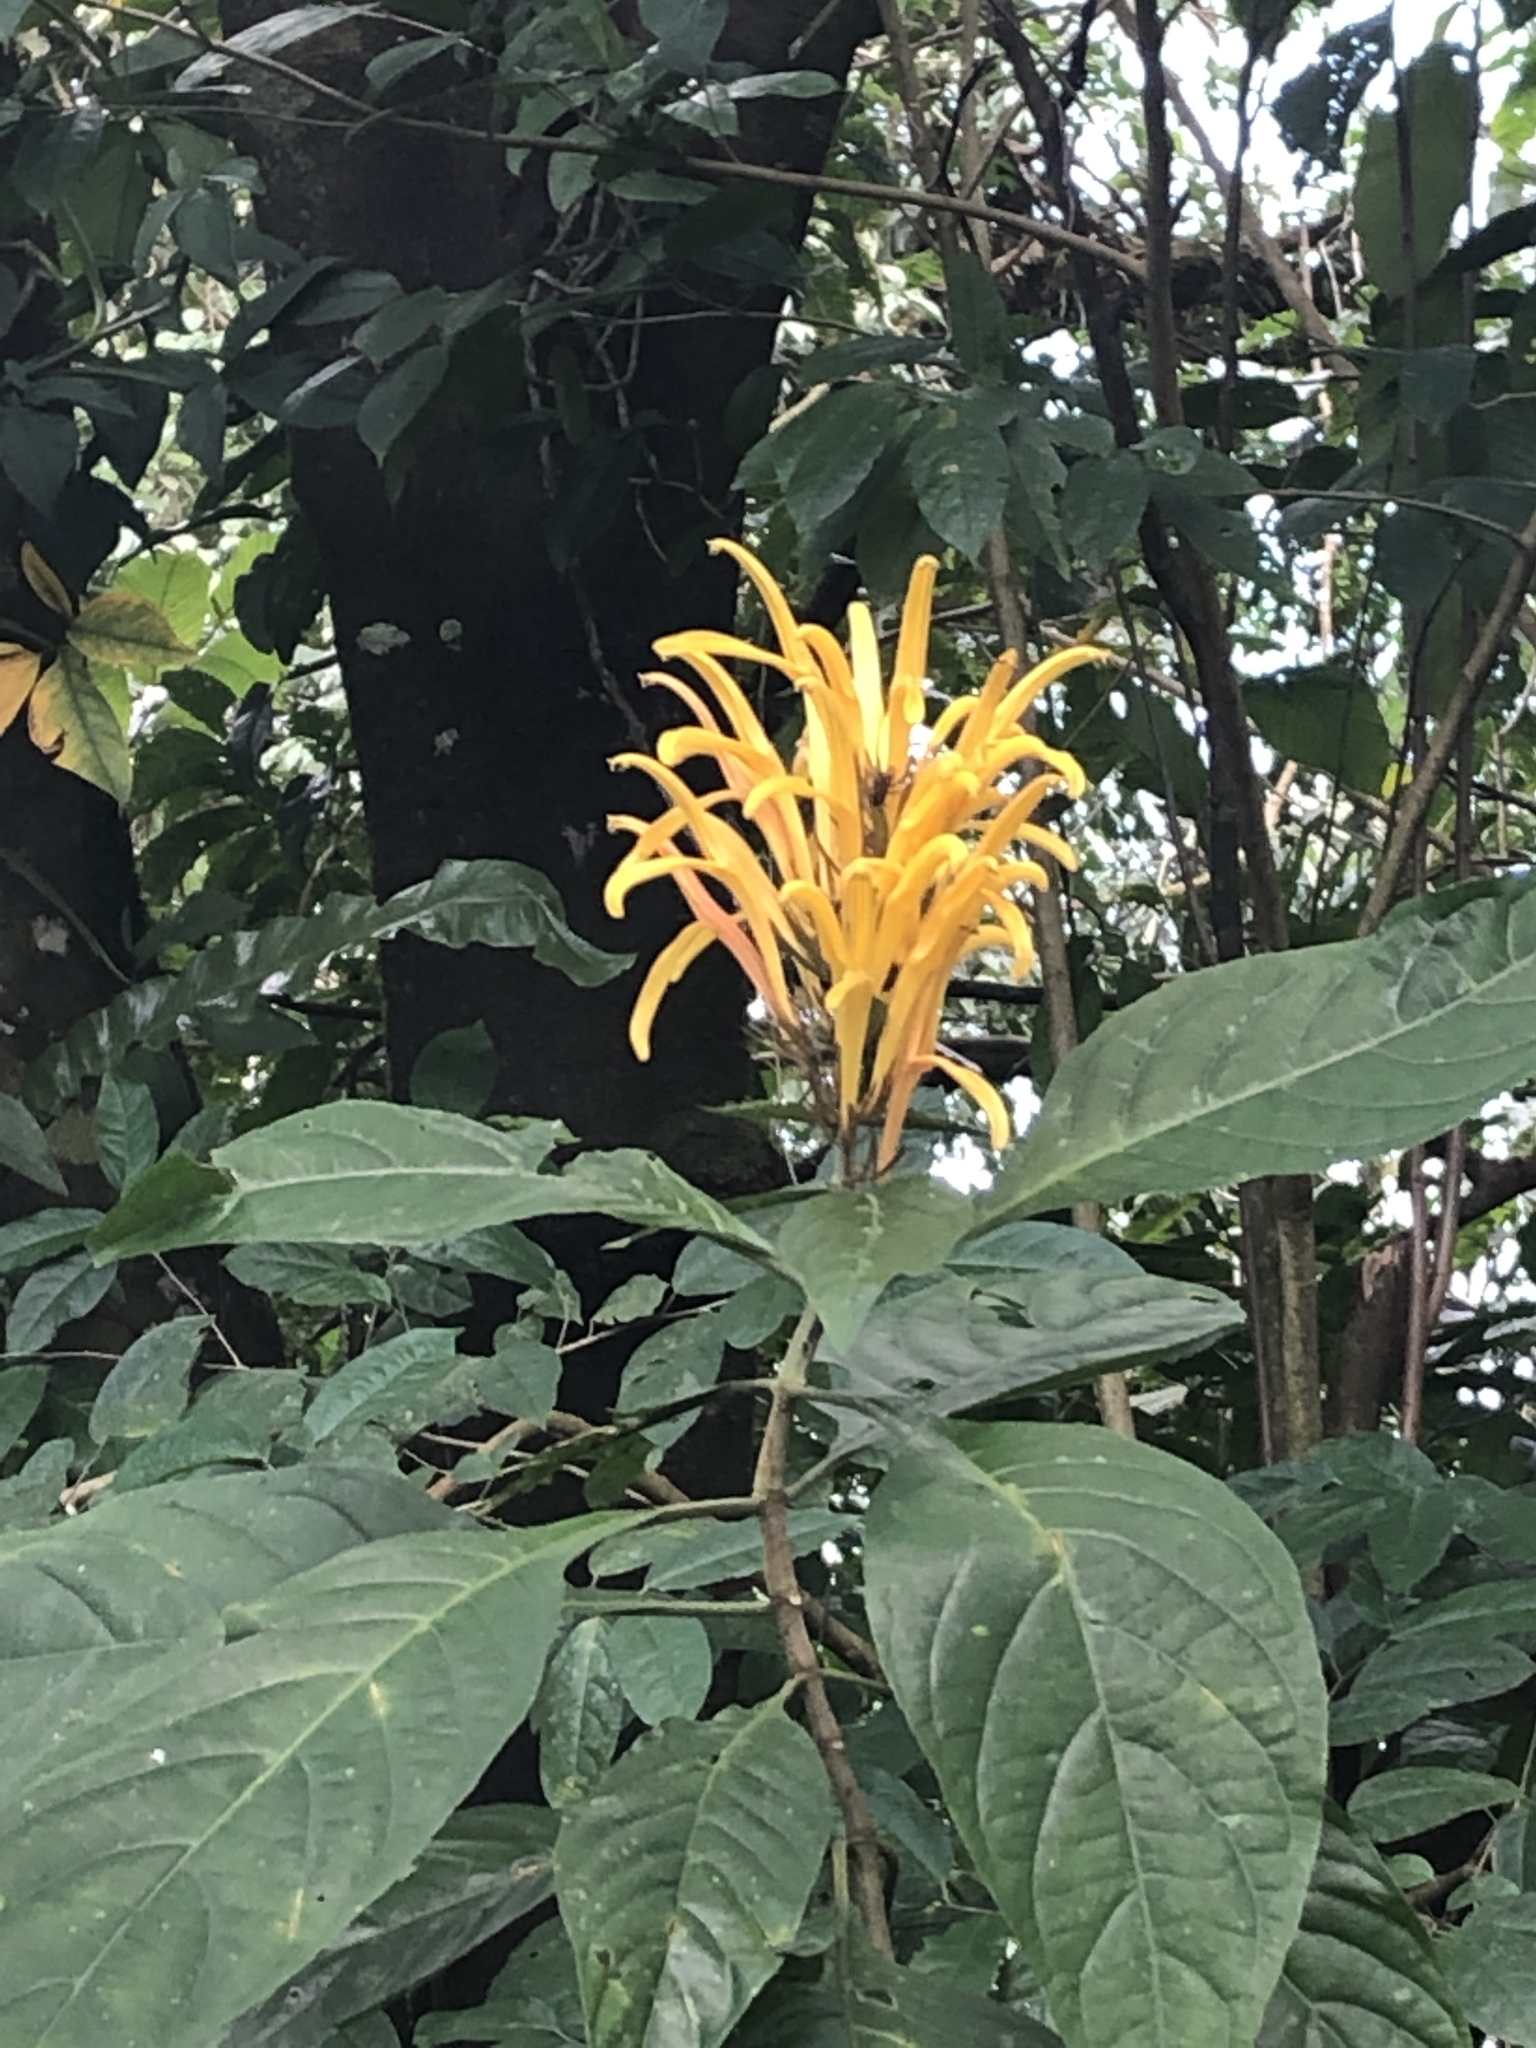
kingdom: Plantae
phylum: Tracheophyta
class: Magnoliopsida
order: Lamiales
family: Acanthaceae
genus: Justicia
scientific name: Justicia aurea
